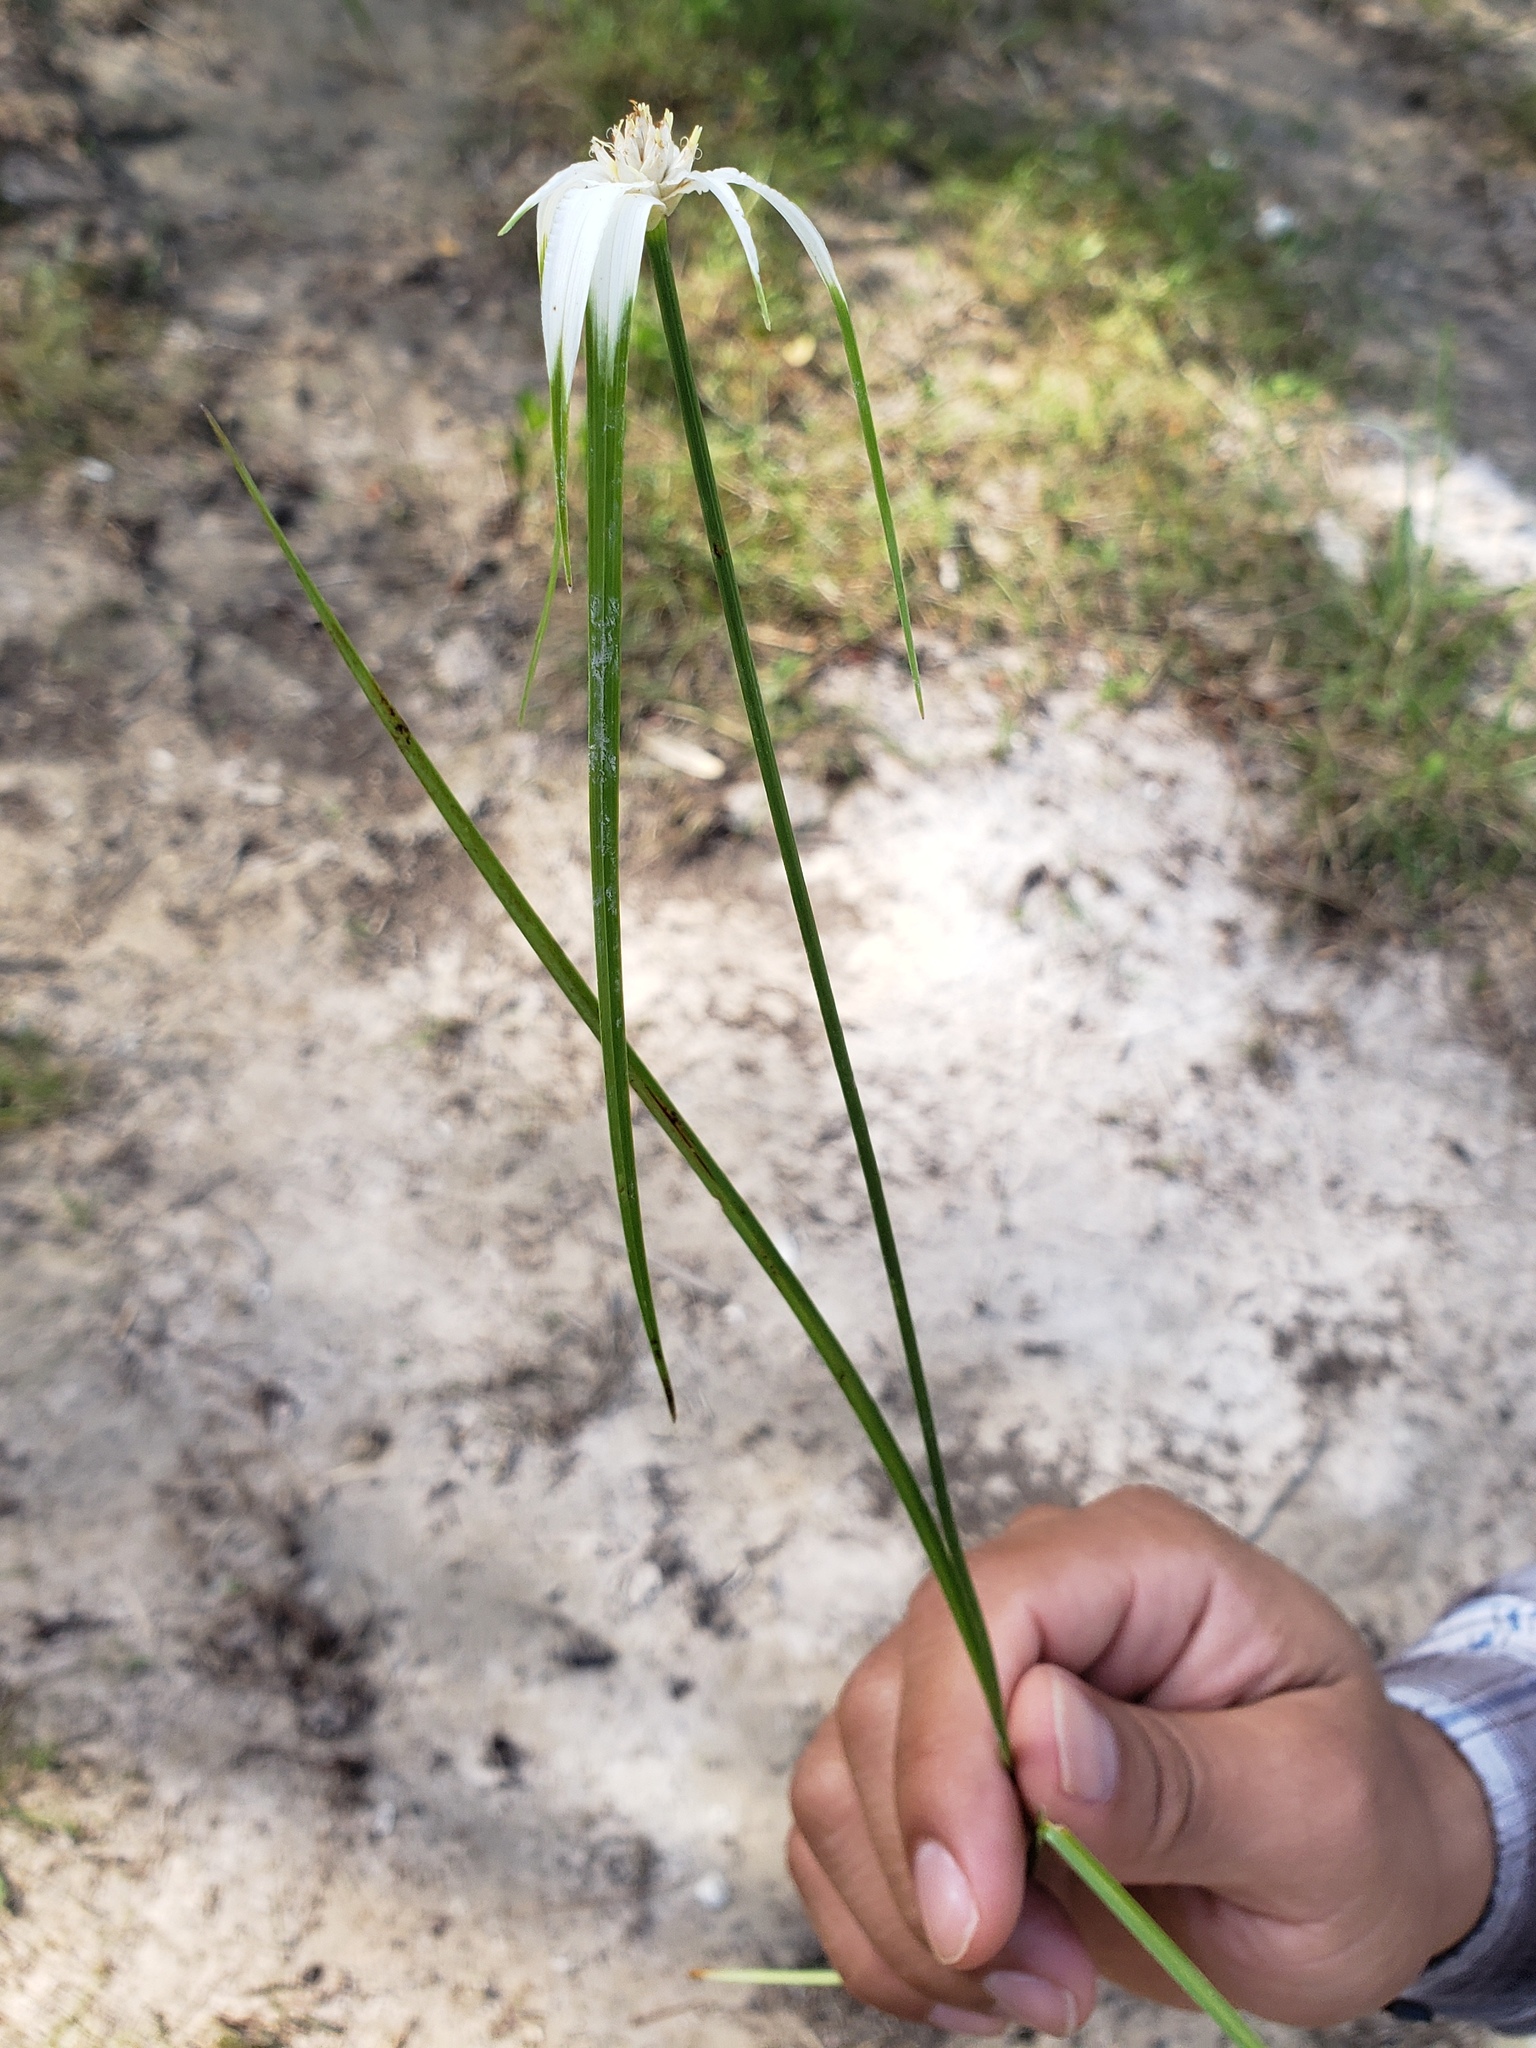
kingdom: Plantae
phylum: Tracheophyta
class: Liliopsida
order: Poales
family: Cyperaceae
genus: Rhynchospora
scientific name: Rhynchospora colorata
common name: Star sedge
